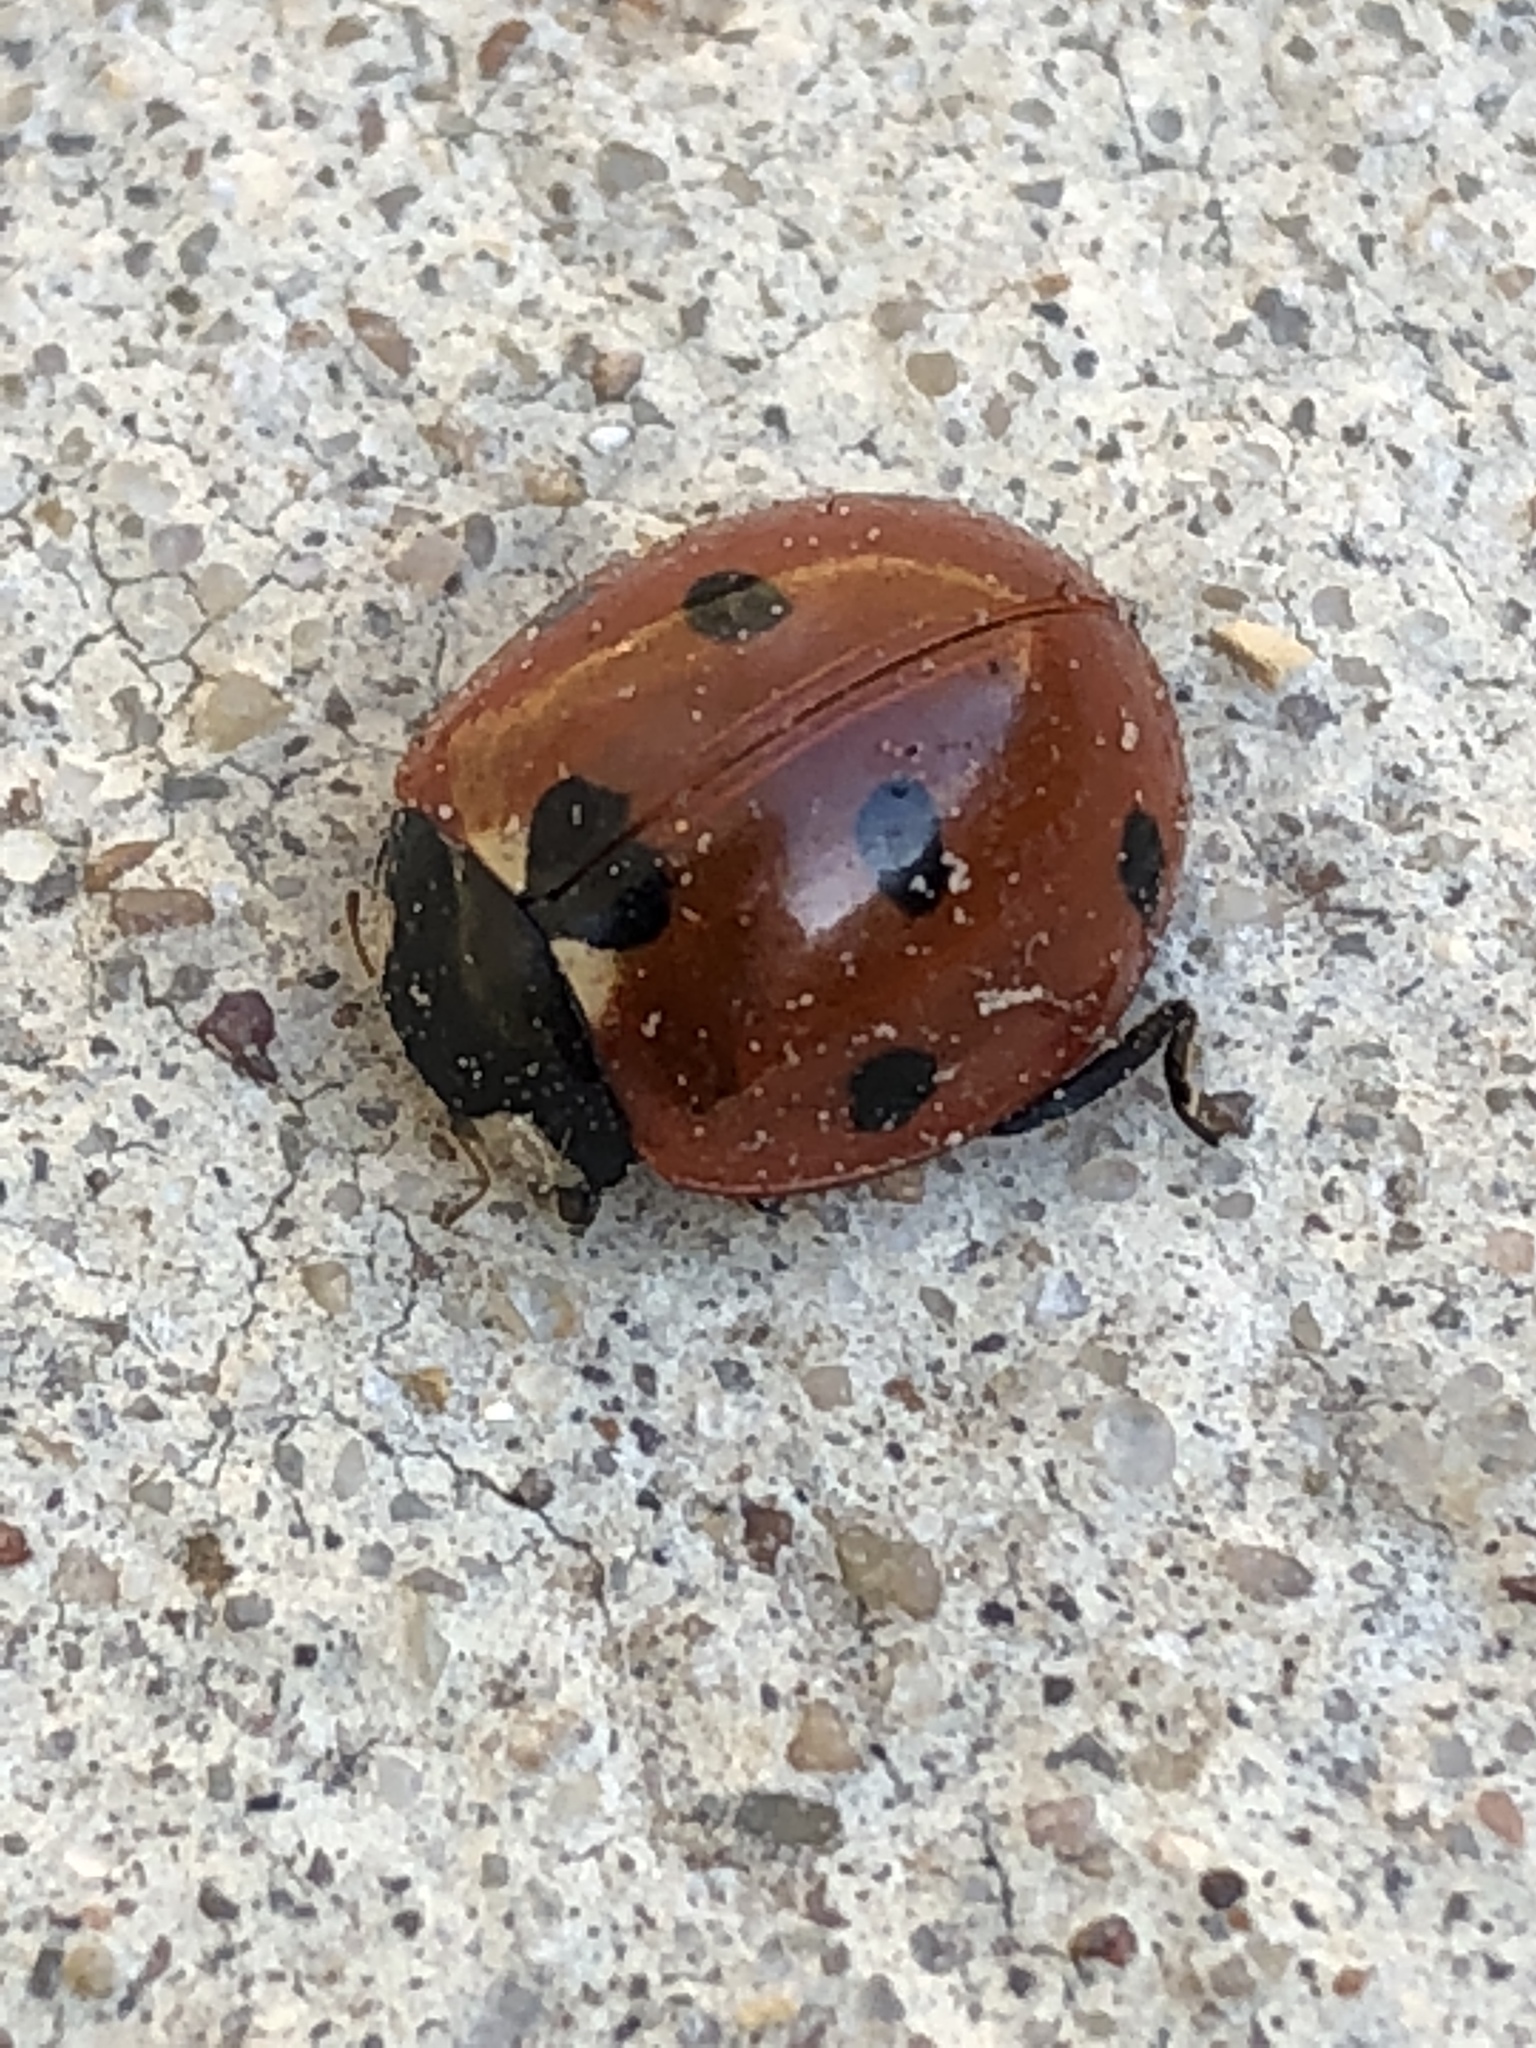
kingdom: Animalia
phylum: Arthropoda
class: Insecta
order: Coleoptera
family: Coccinellidae
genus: Coccinella
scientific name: Coccinella septempunctata
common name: Sevenspotted lady beetle
